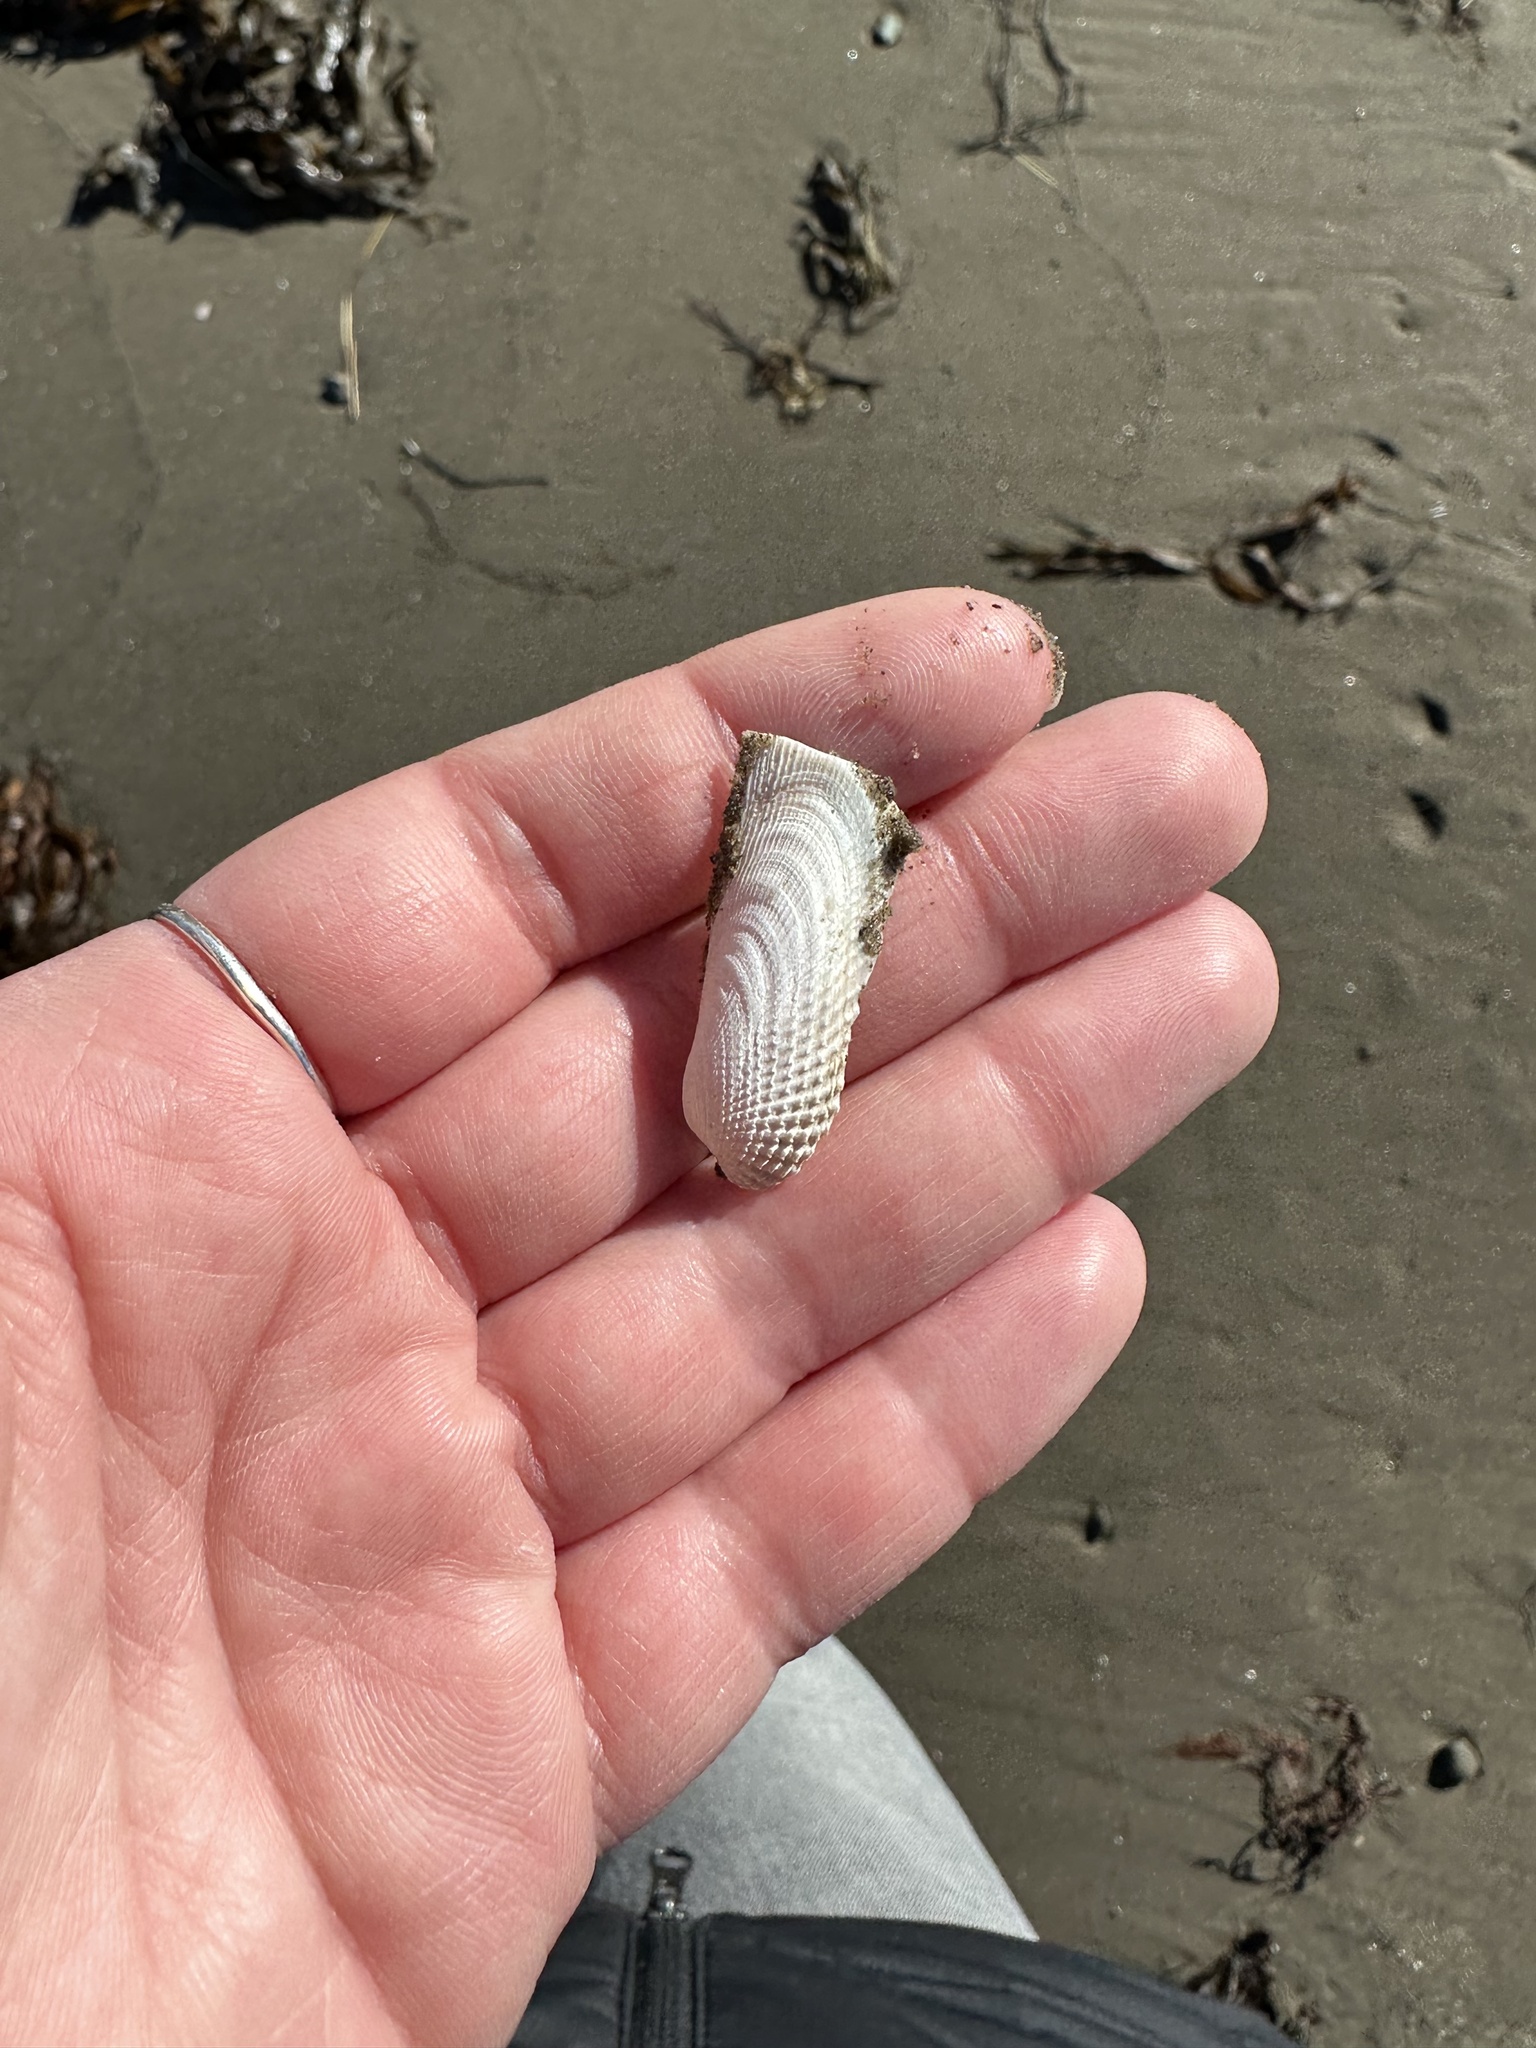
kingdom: Animalia
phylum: Mollusca
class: Bivalvia
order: Venerida
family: Veneridae
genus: Petricolaria
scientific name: Petricolaria pholadiformis
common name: American piddock
